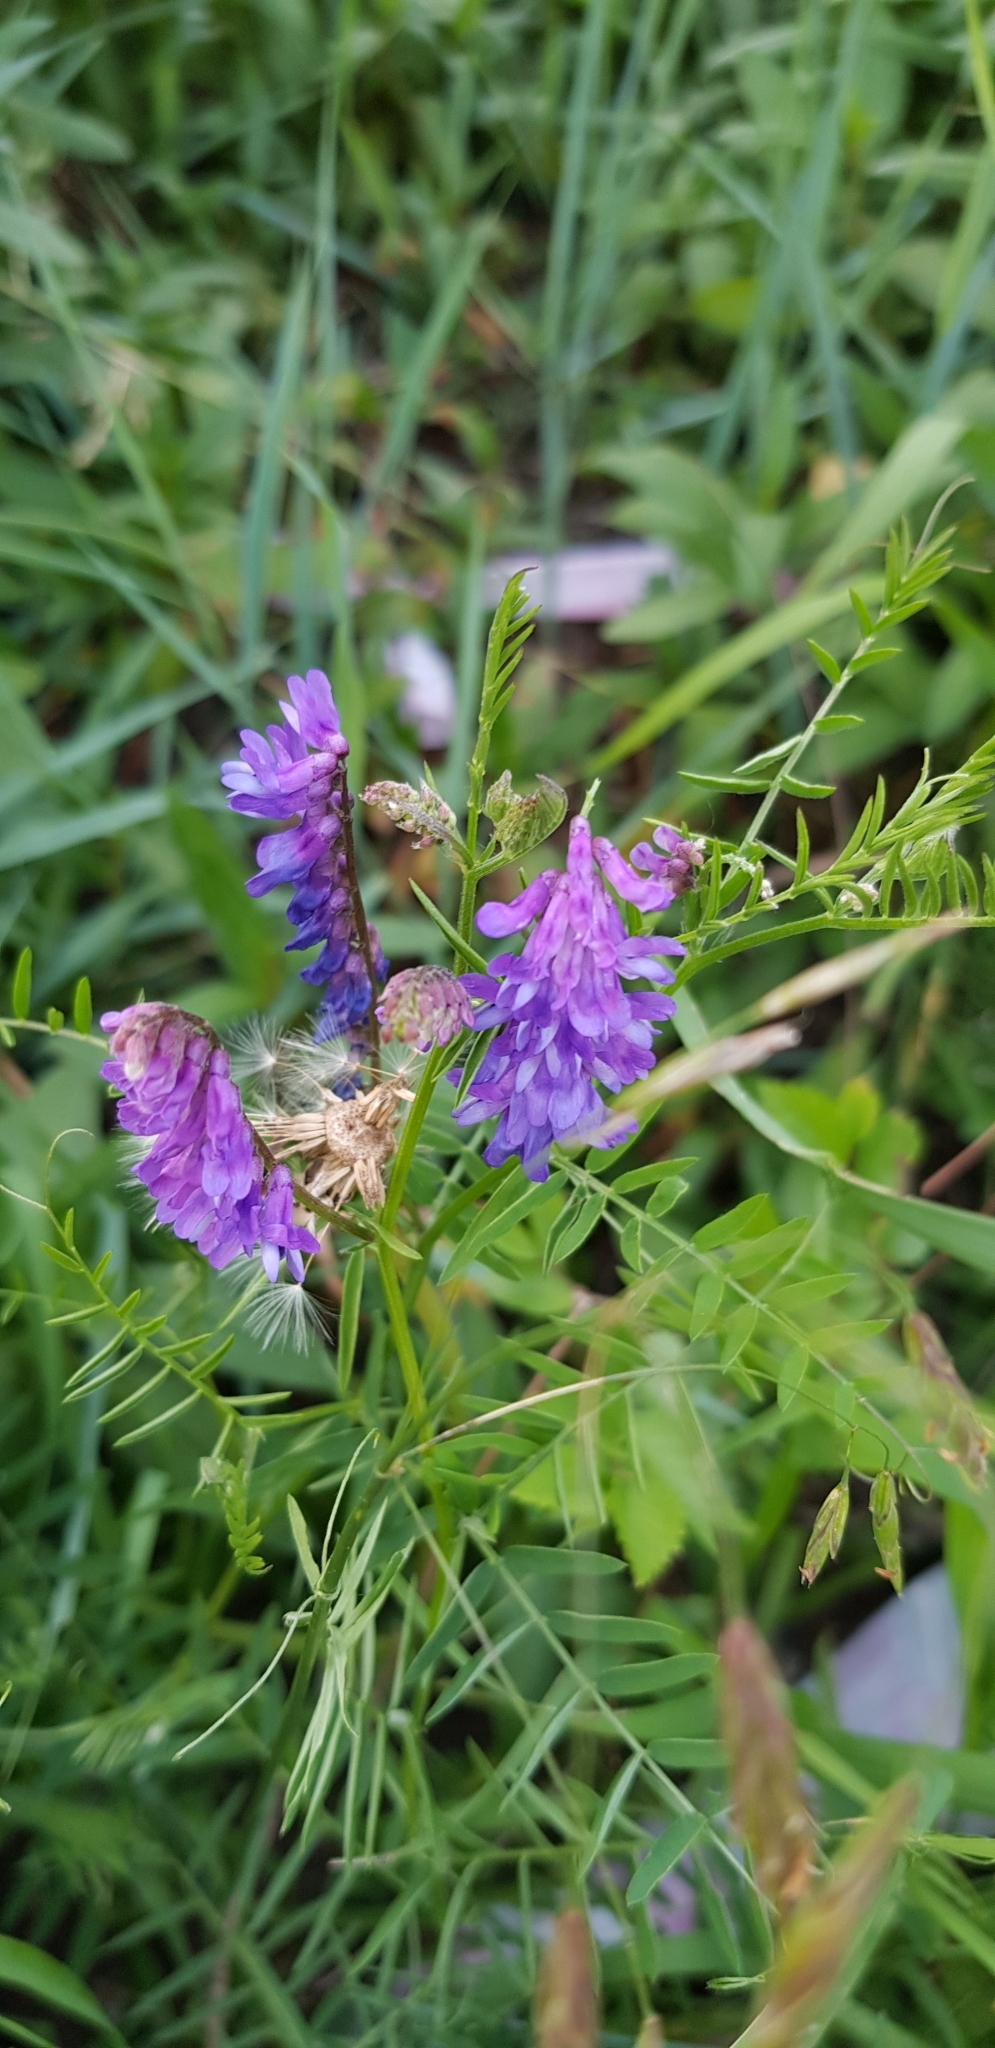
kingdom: Plantae
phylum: Tracheophyta
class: Magnoliopsida
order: Fabales
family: Fabaceae
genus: Vicia
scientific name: Vicia cracca
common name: Bird vetch
